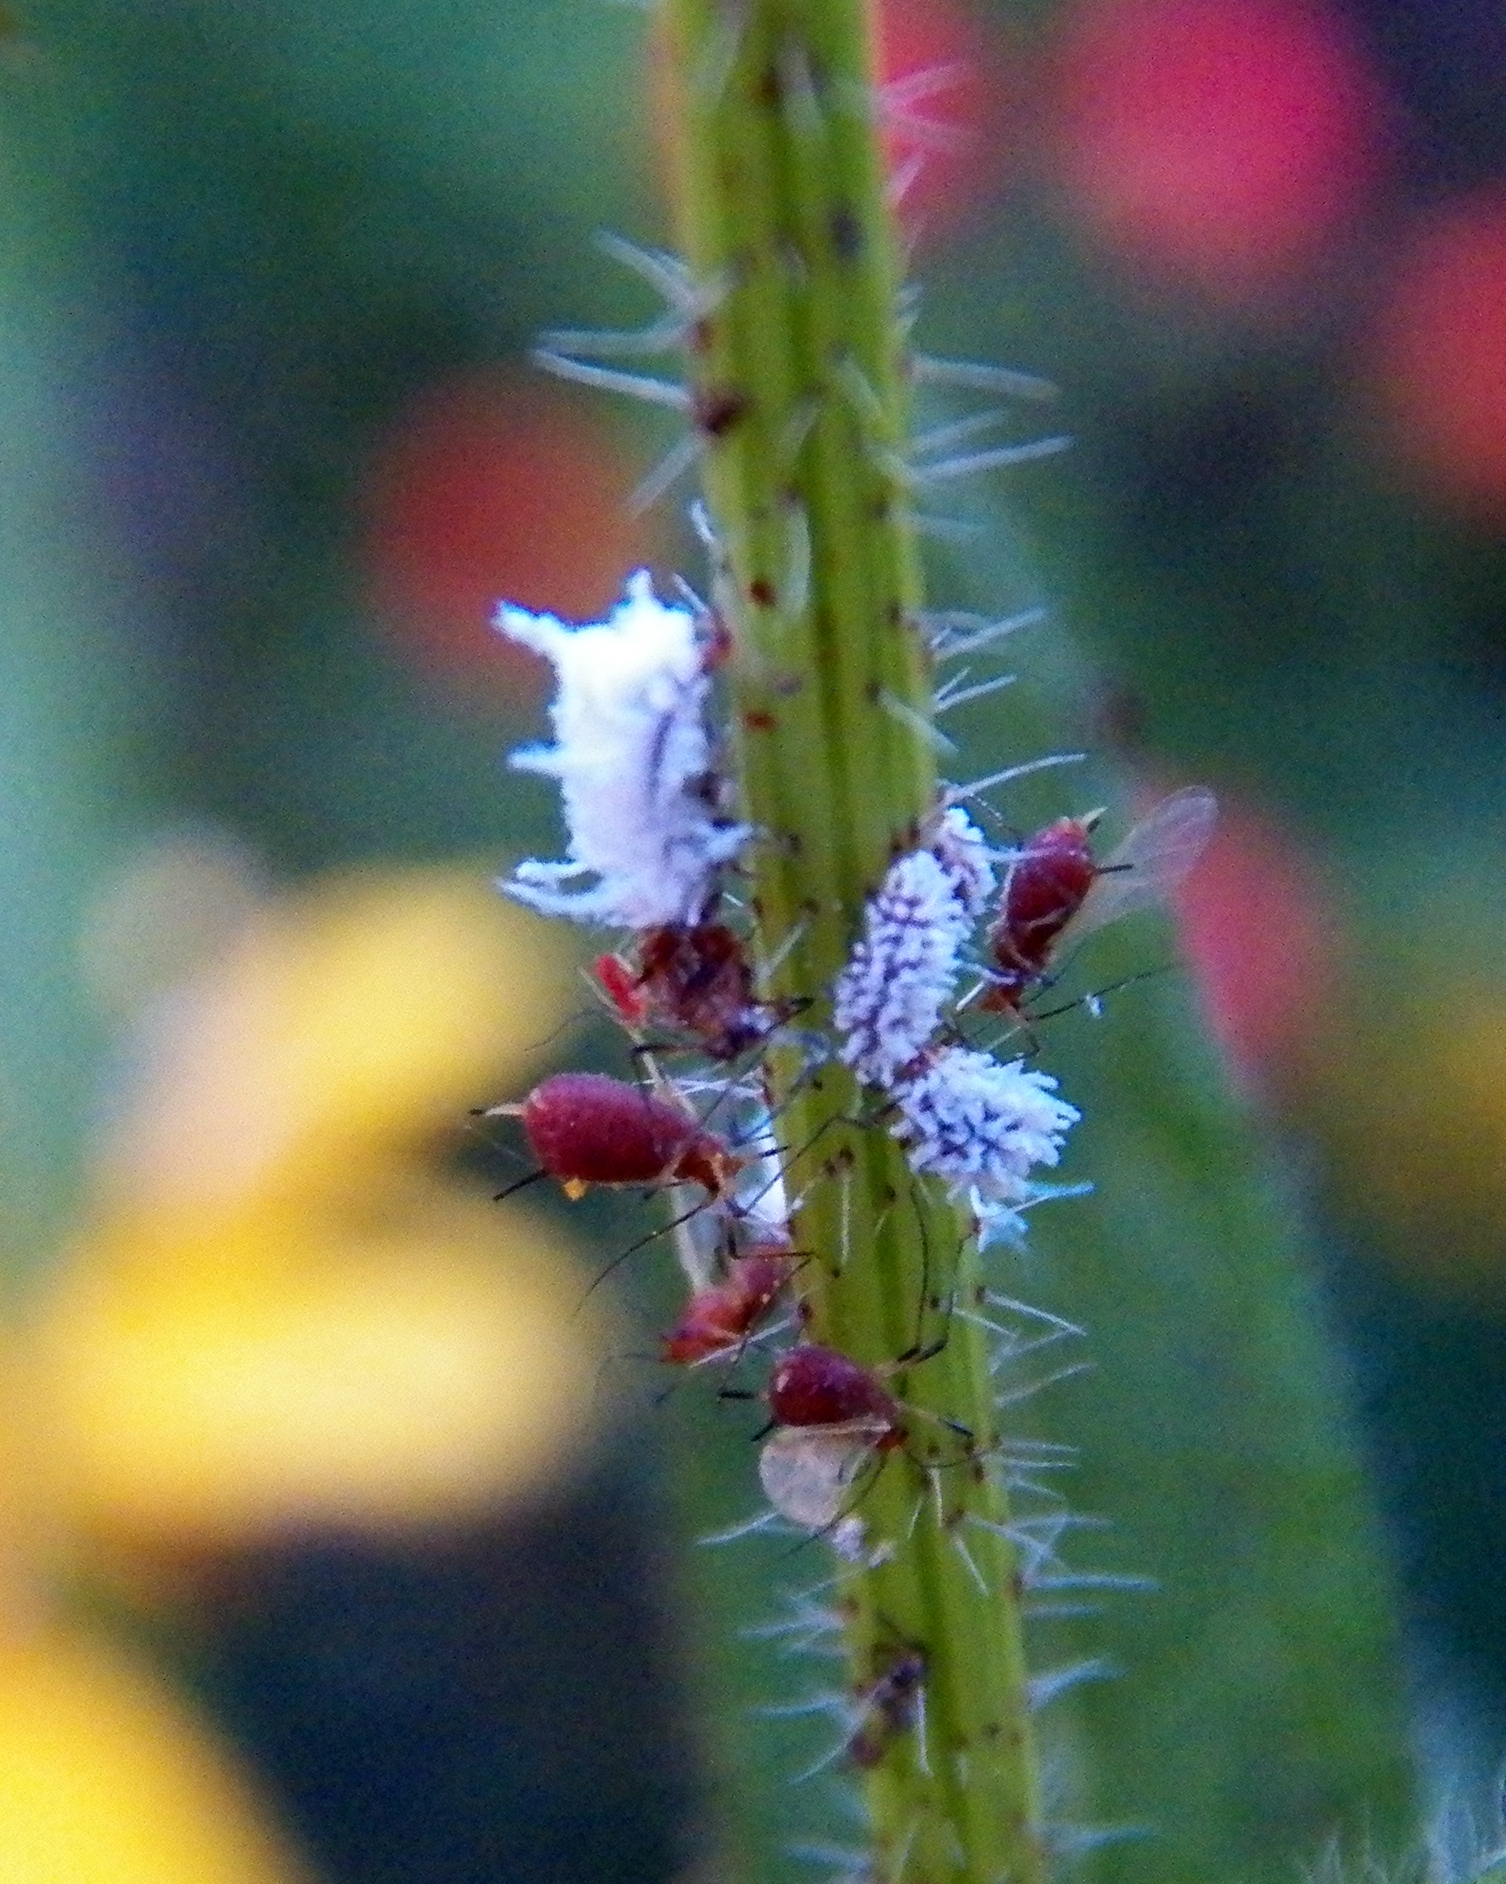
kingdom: Animalia
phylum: Arthropoda
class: Insecta
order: Coleoptera
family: Coccinellidae
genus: Cryptolaemus
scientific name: Cryptolaemus montrouzieri
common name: Mealybug destroyer
